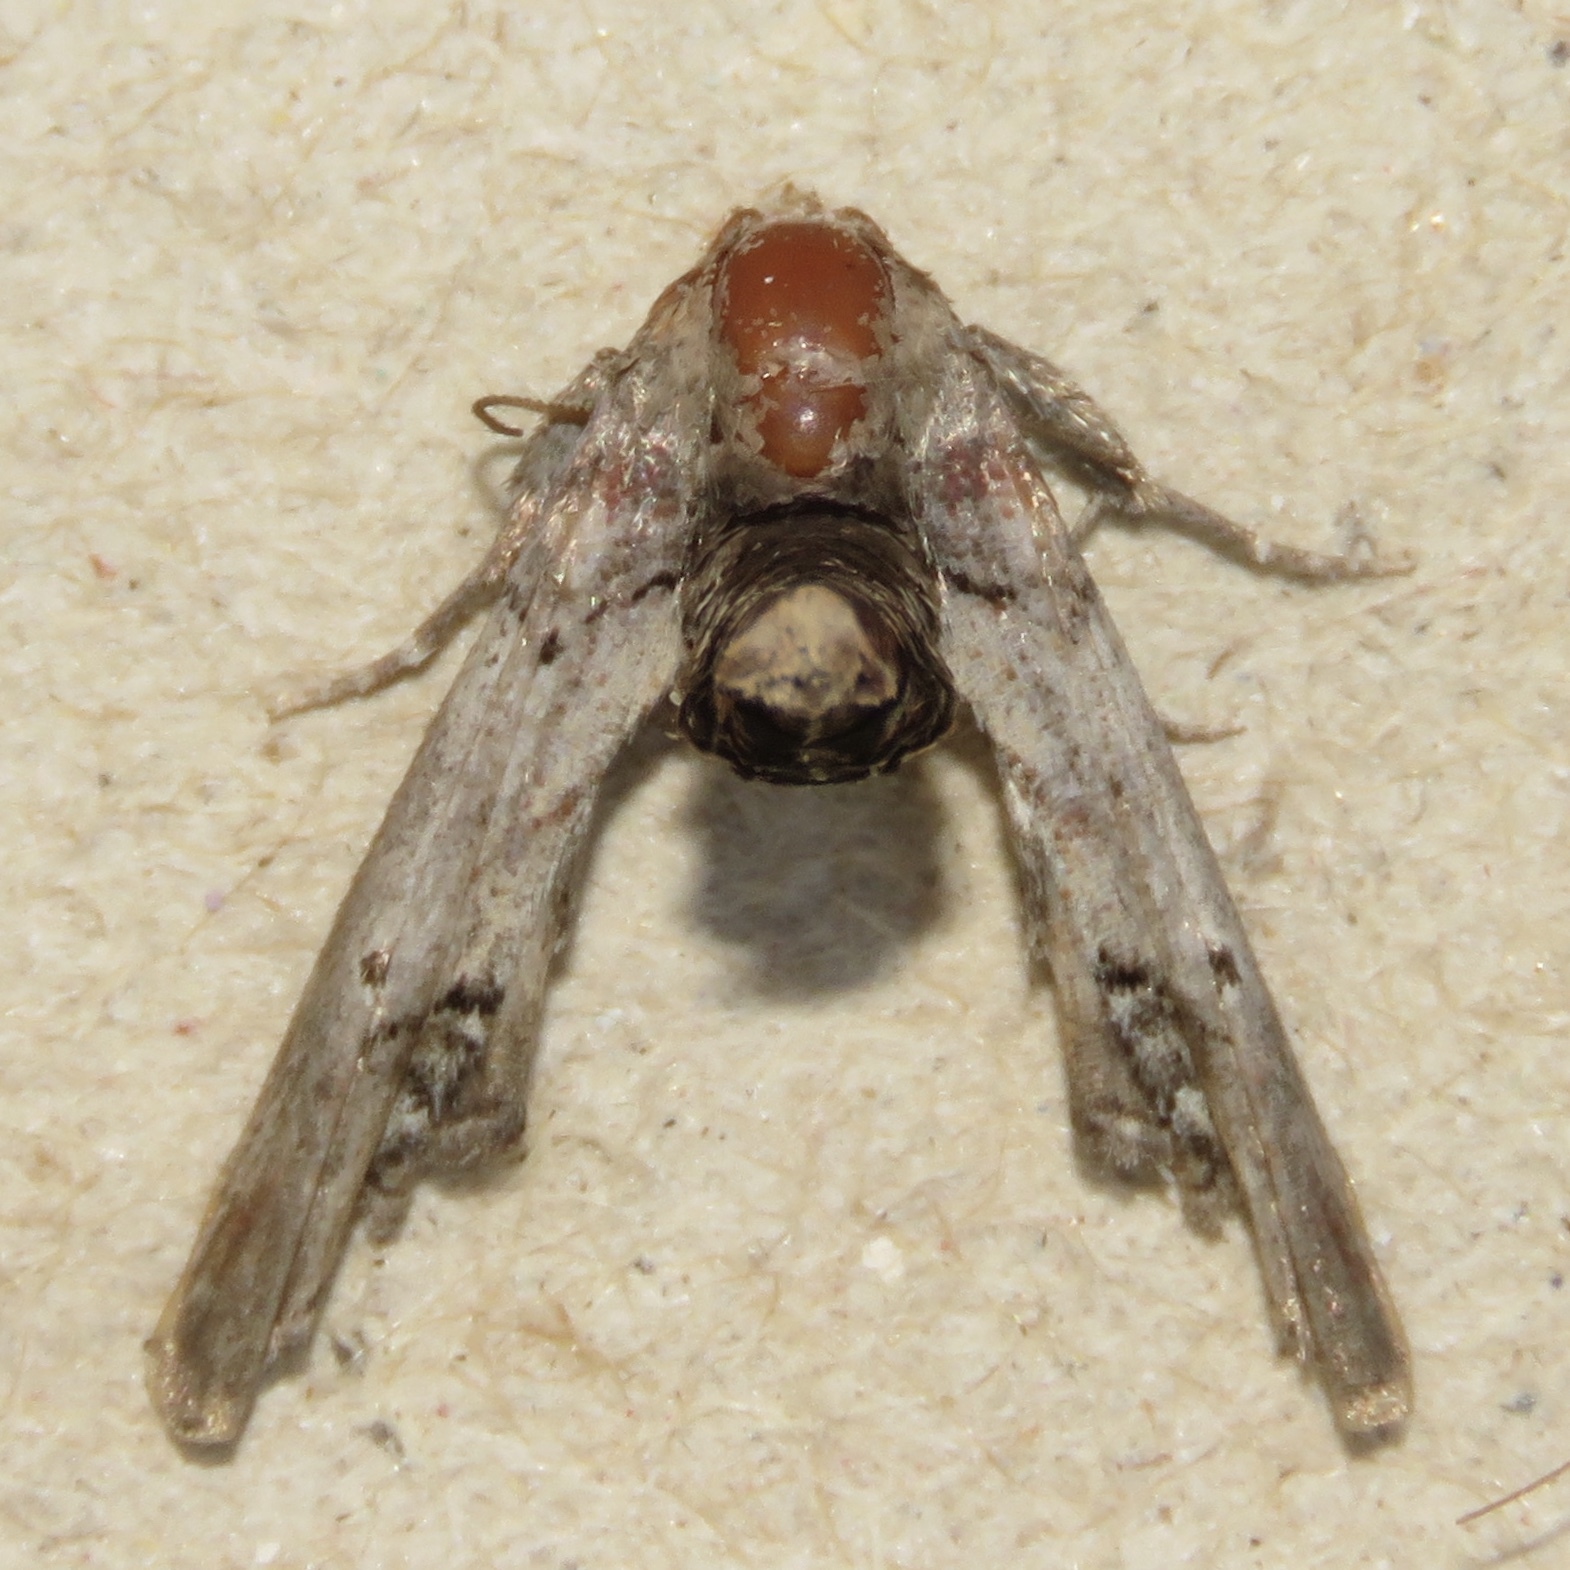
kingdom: Animalia
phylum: Arthropoda
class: Insecta
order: Lepidoptera
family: Euteliidae
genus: Marathyssa
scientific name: Marathyssa inficita
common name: Dark marathyssa moth
